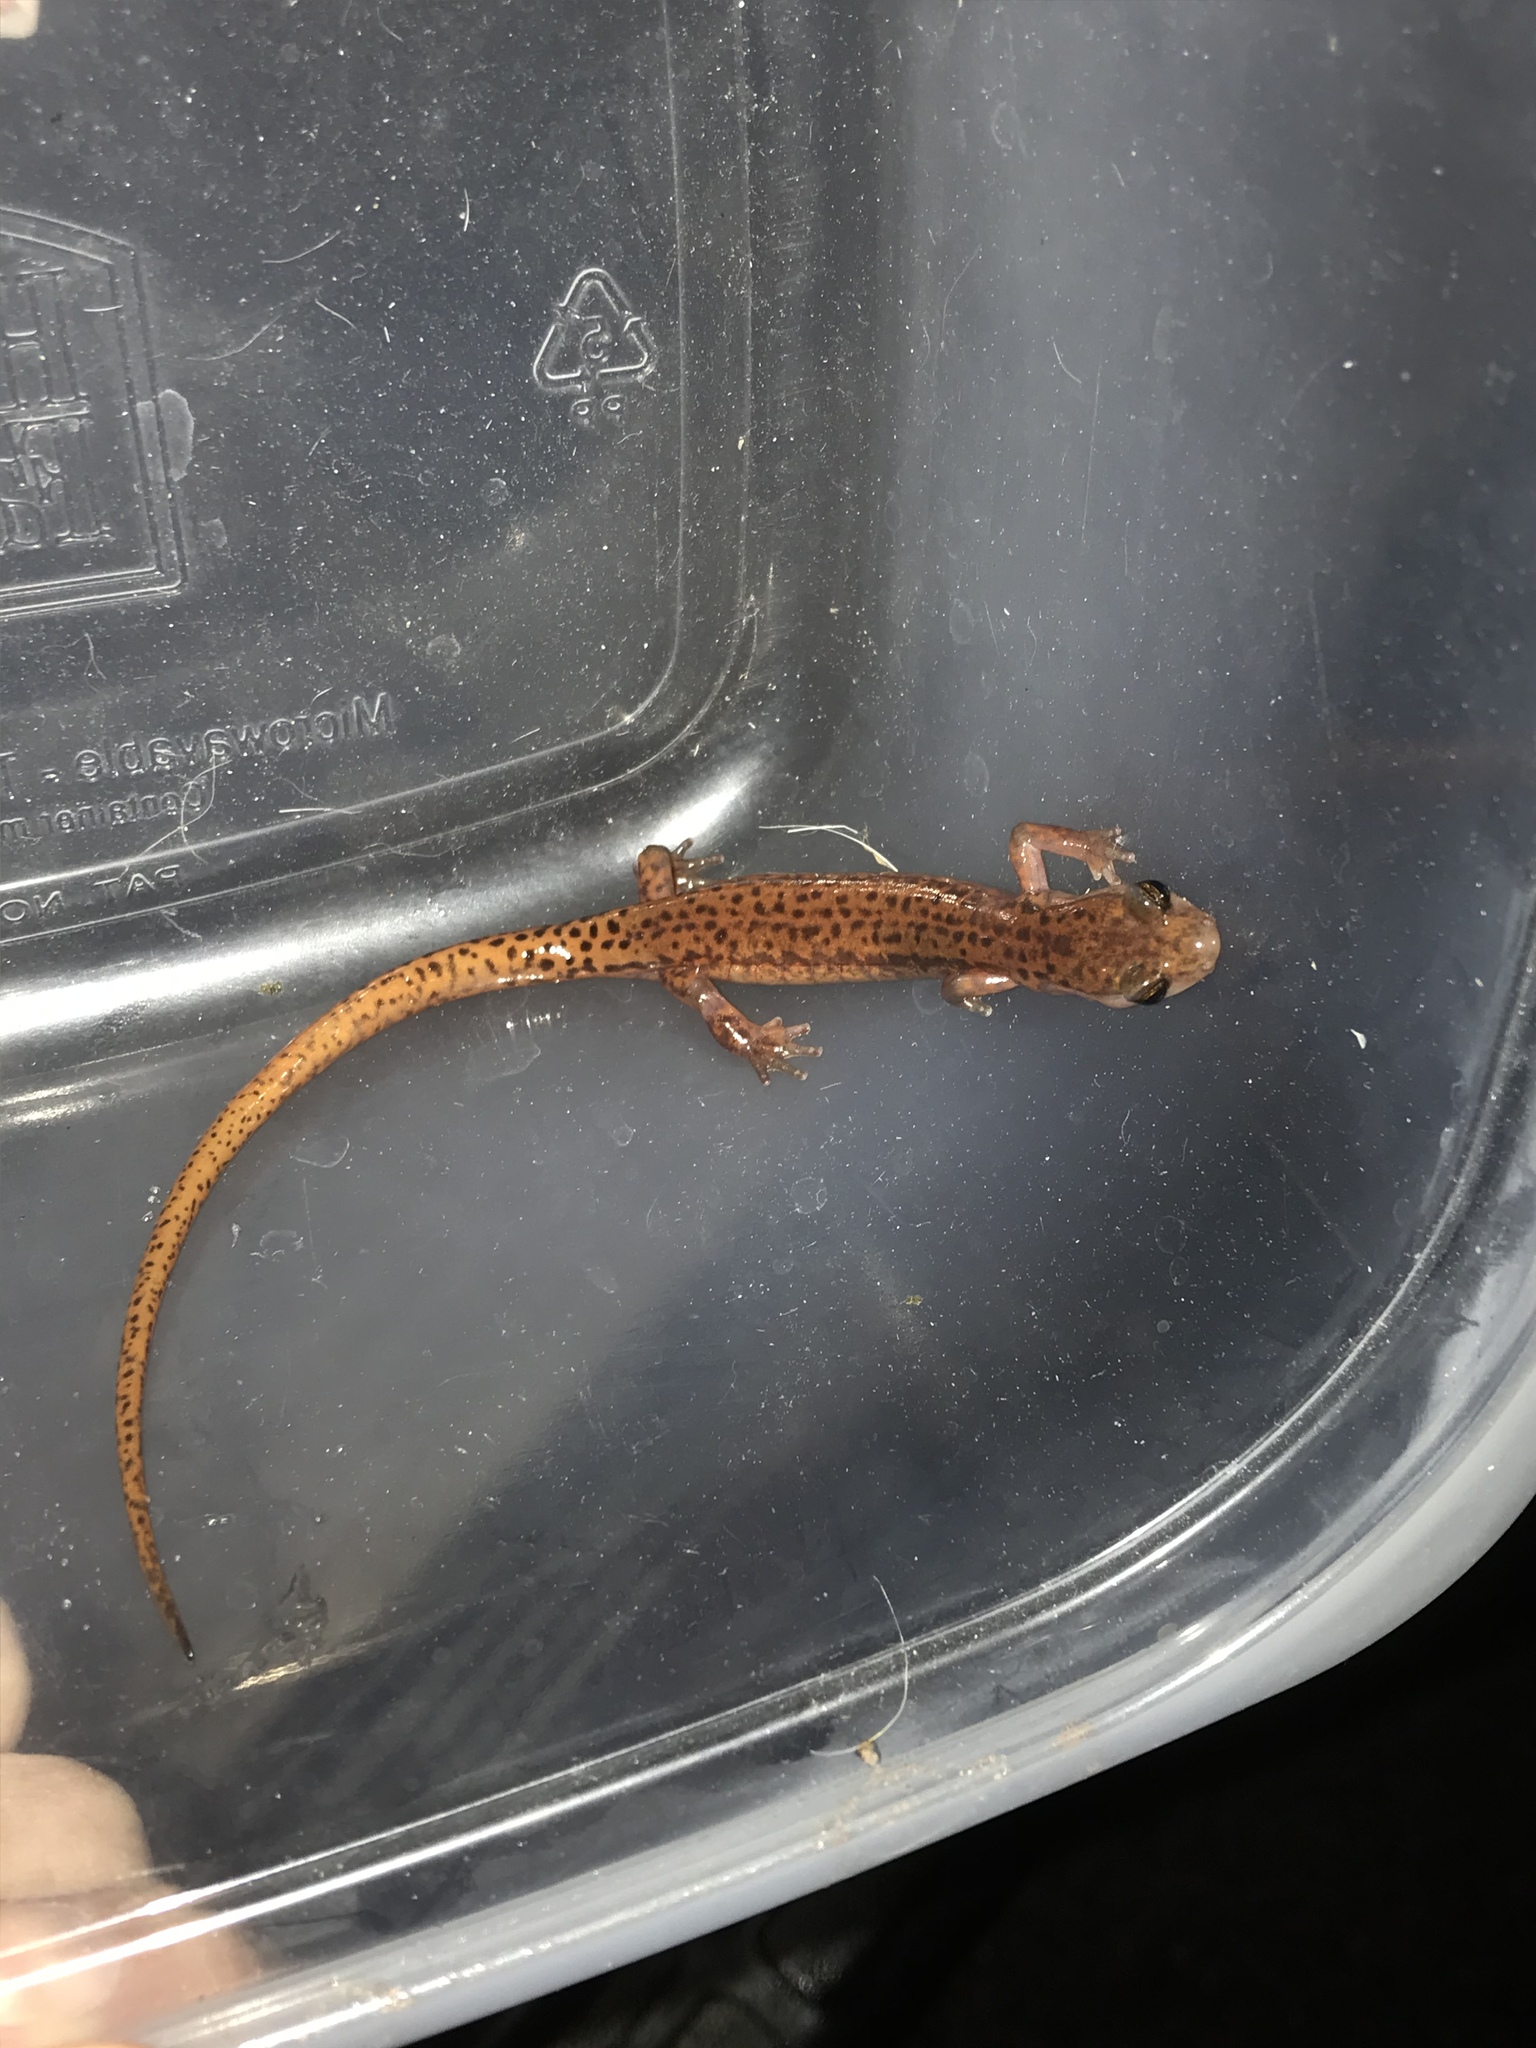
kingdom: Animalia
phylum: Chordata
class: Amphibia
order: Caudata
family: Plethodontidae
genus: Eurycea
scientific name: Eurycea lucifuga
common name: Cave salamander
